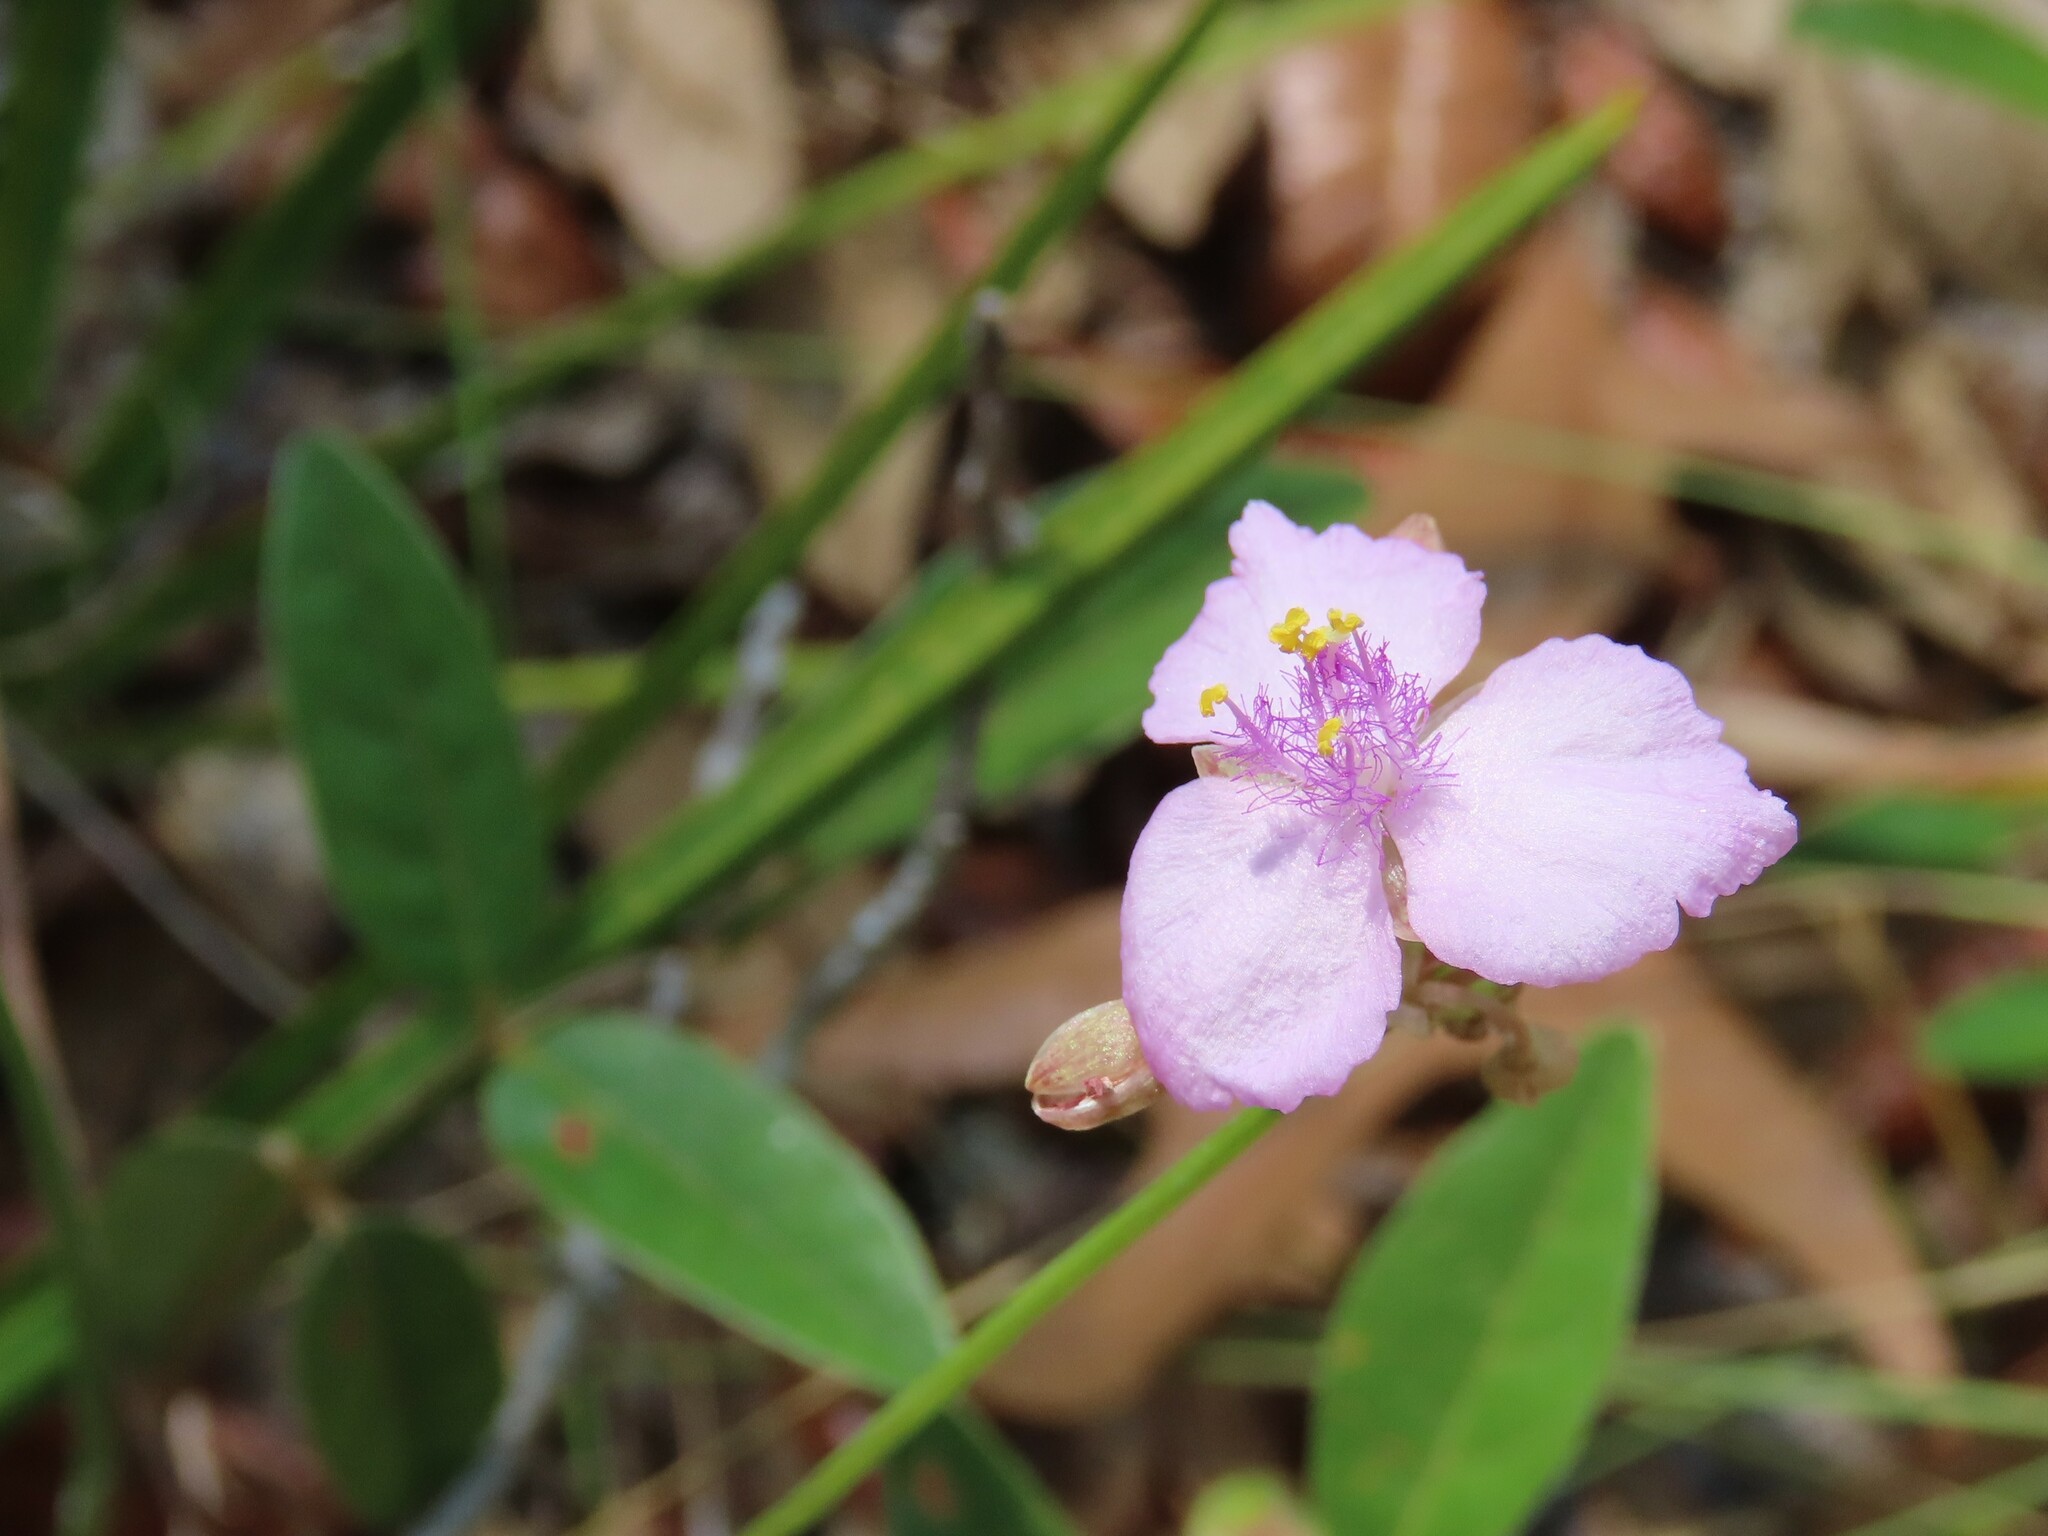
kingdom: Plantae
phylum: Tracheophyta
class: Liliopsida
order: Commelinales
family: Commelinaceae
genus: Callisia
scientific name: Callisia ornata
